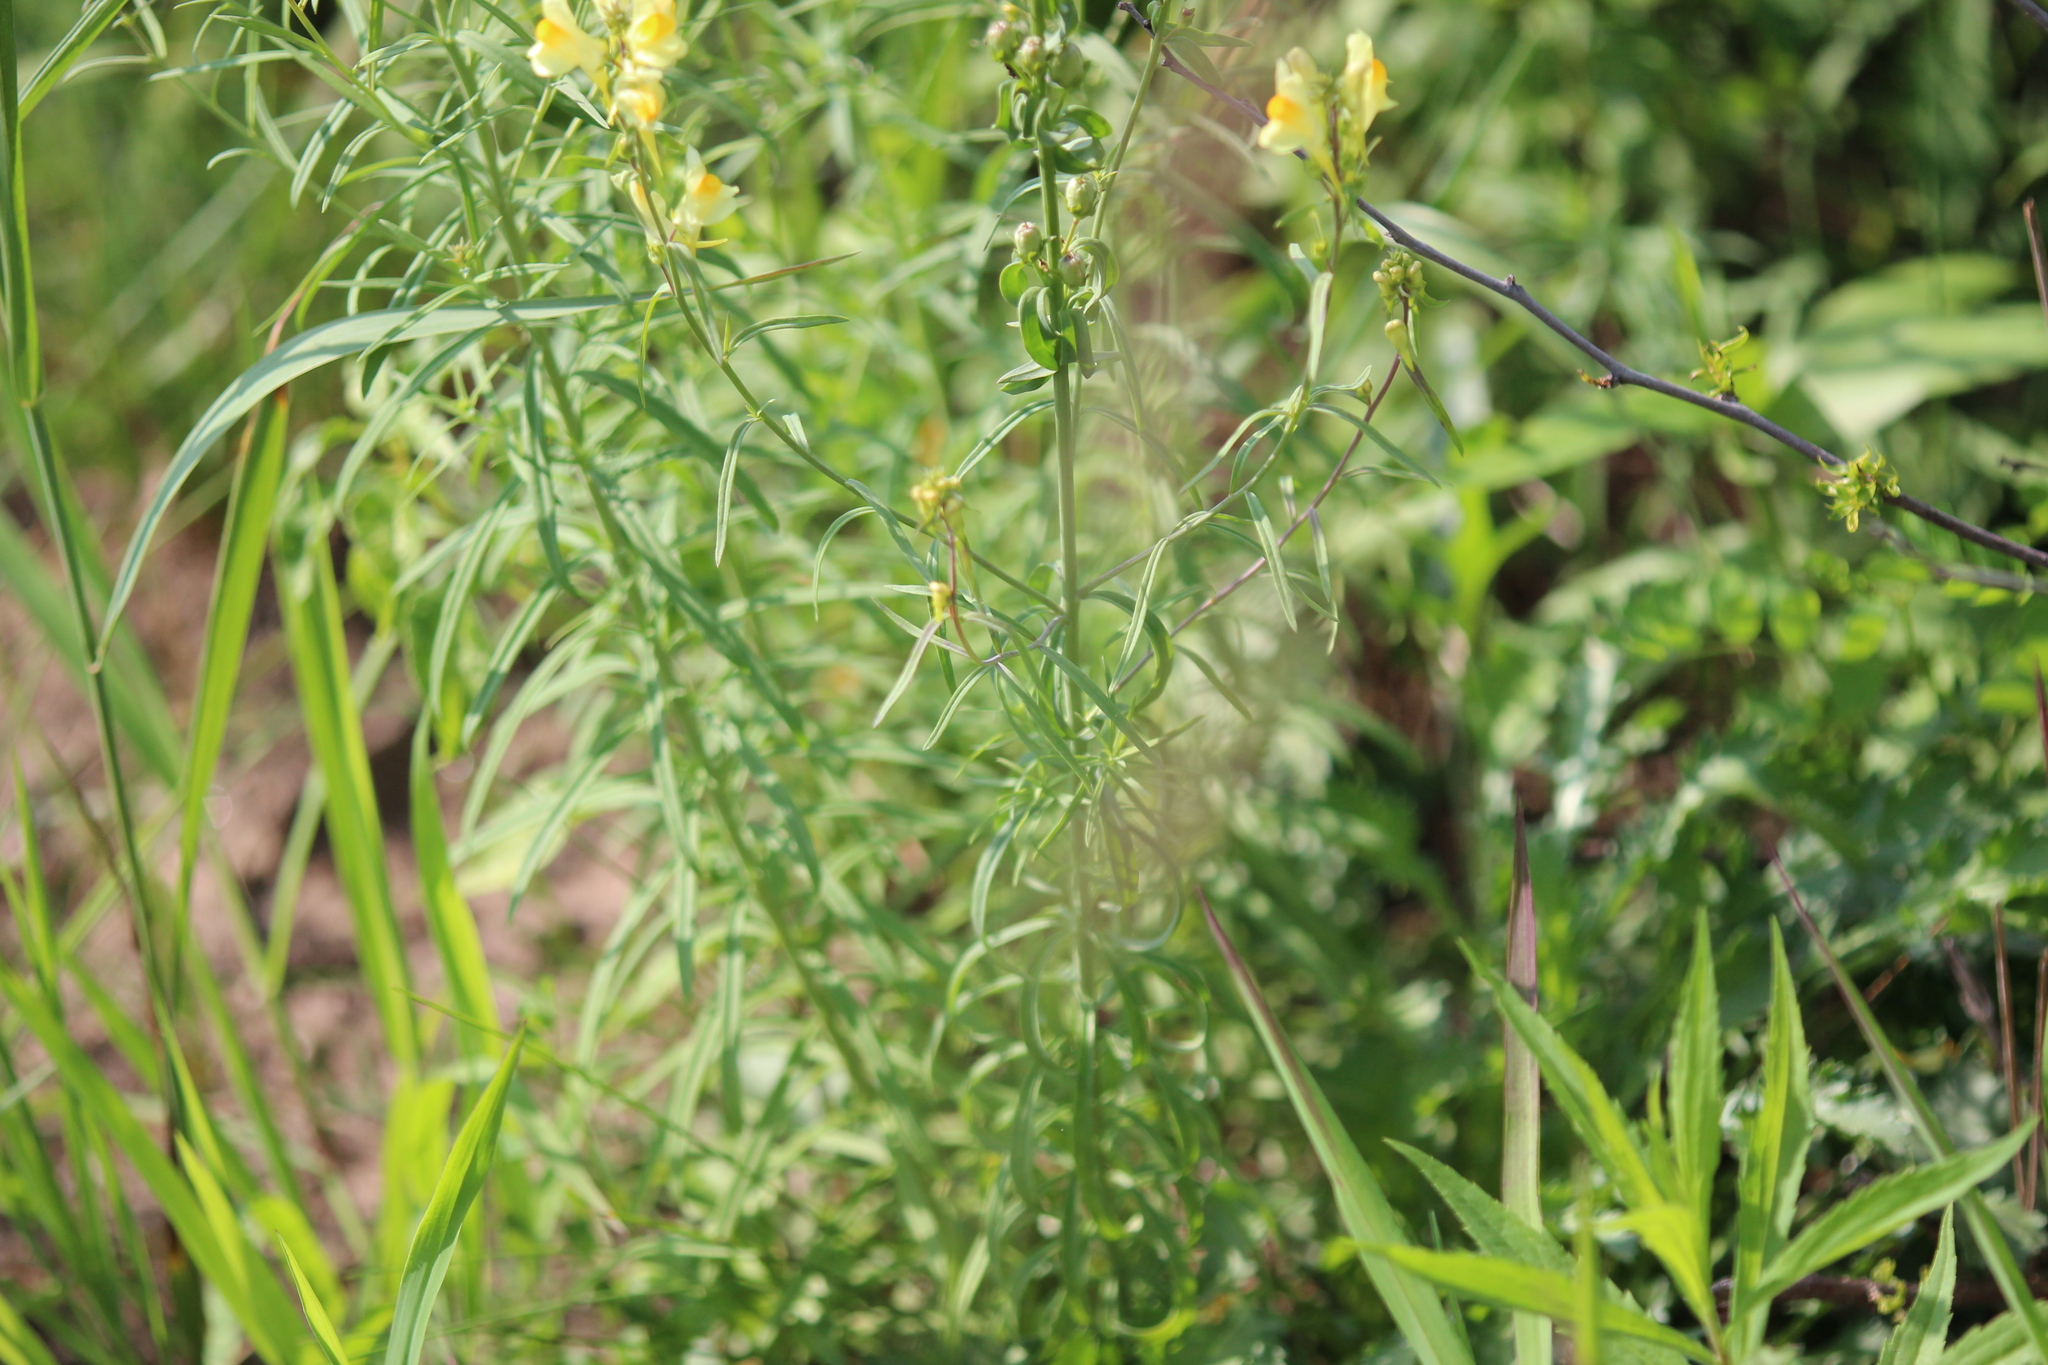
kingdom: Plantae
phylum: Tracheophyta
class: Magnoliopsida
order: Lamiales
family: Plantaginaceae
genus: Linaria
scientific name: Linaria vulgaris
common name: Butter and eggs
